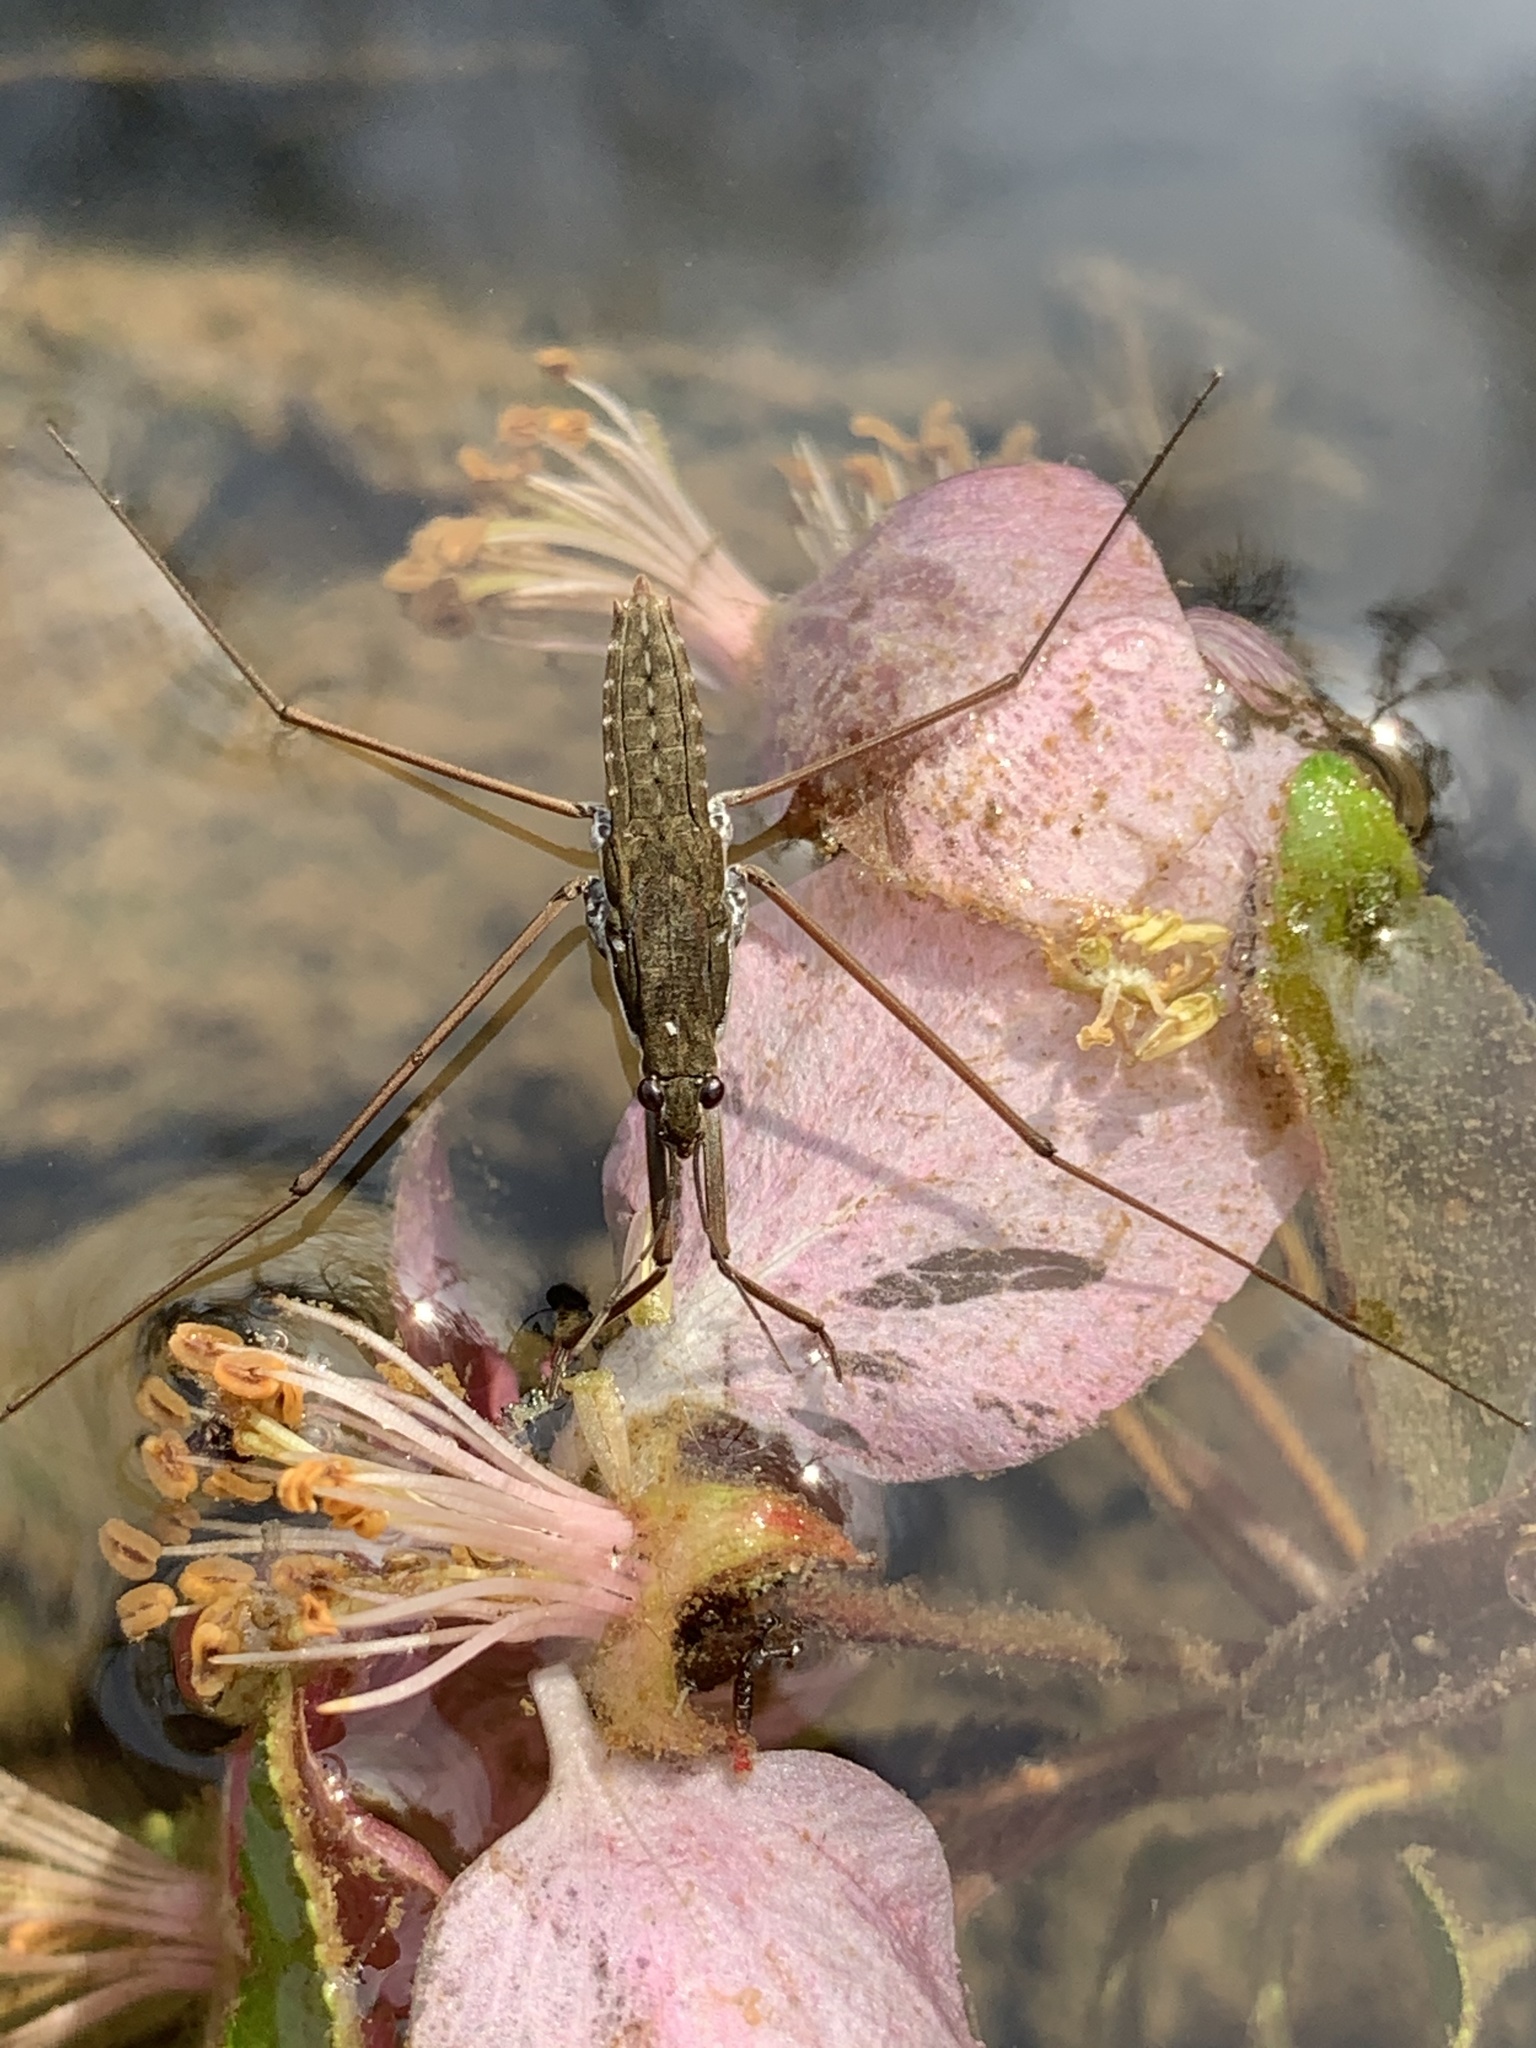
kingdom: Animalia
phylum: Arthropoda
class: Insecta
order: Hemiptera
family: Gerridae
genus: Aquarius
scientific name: Aquarius
